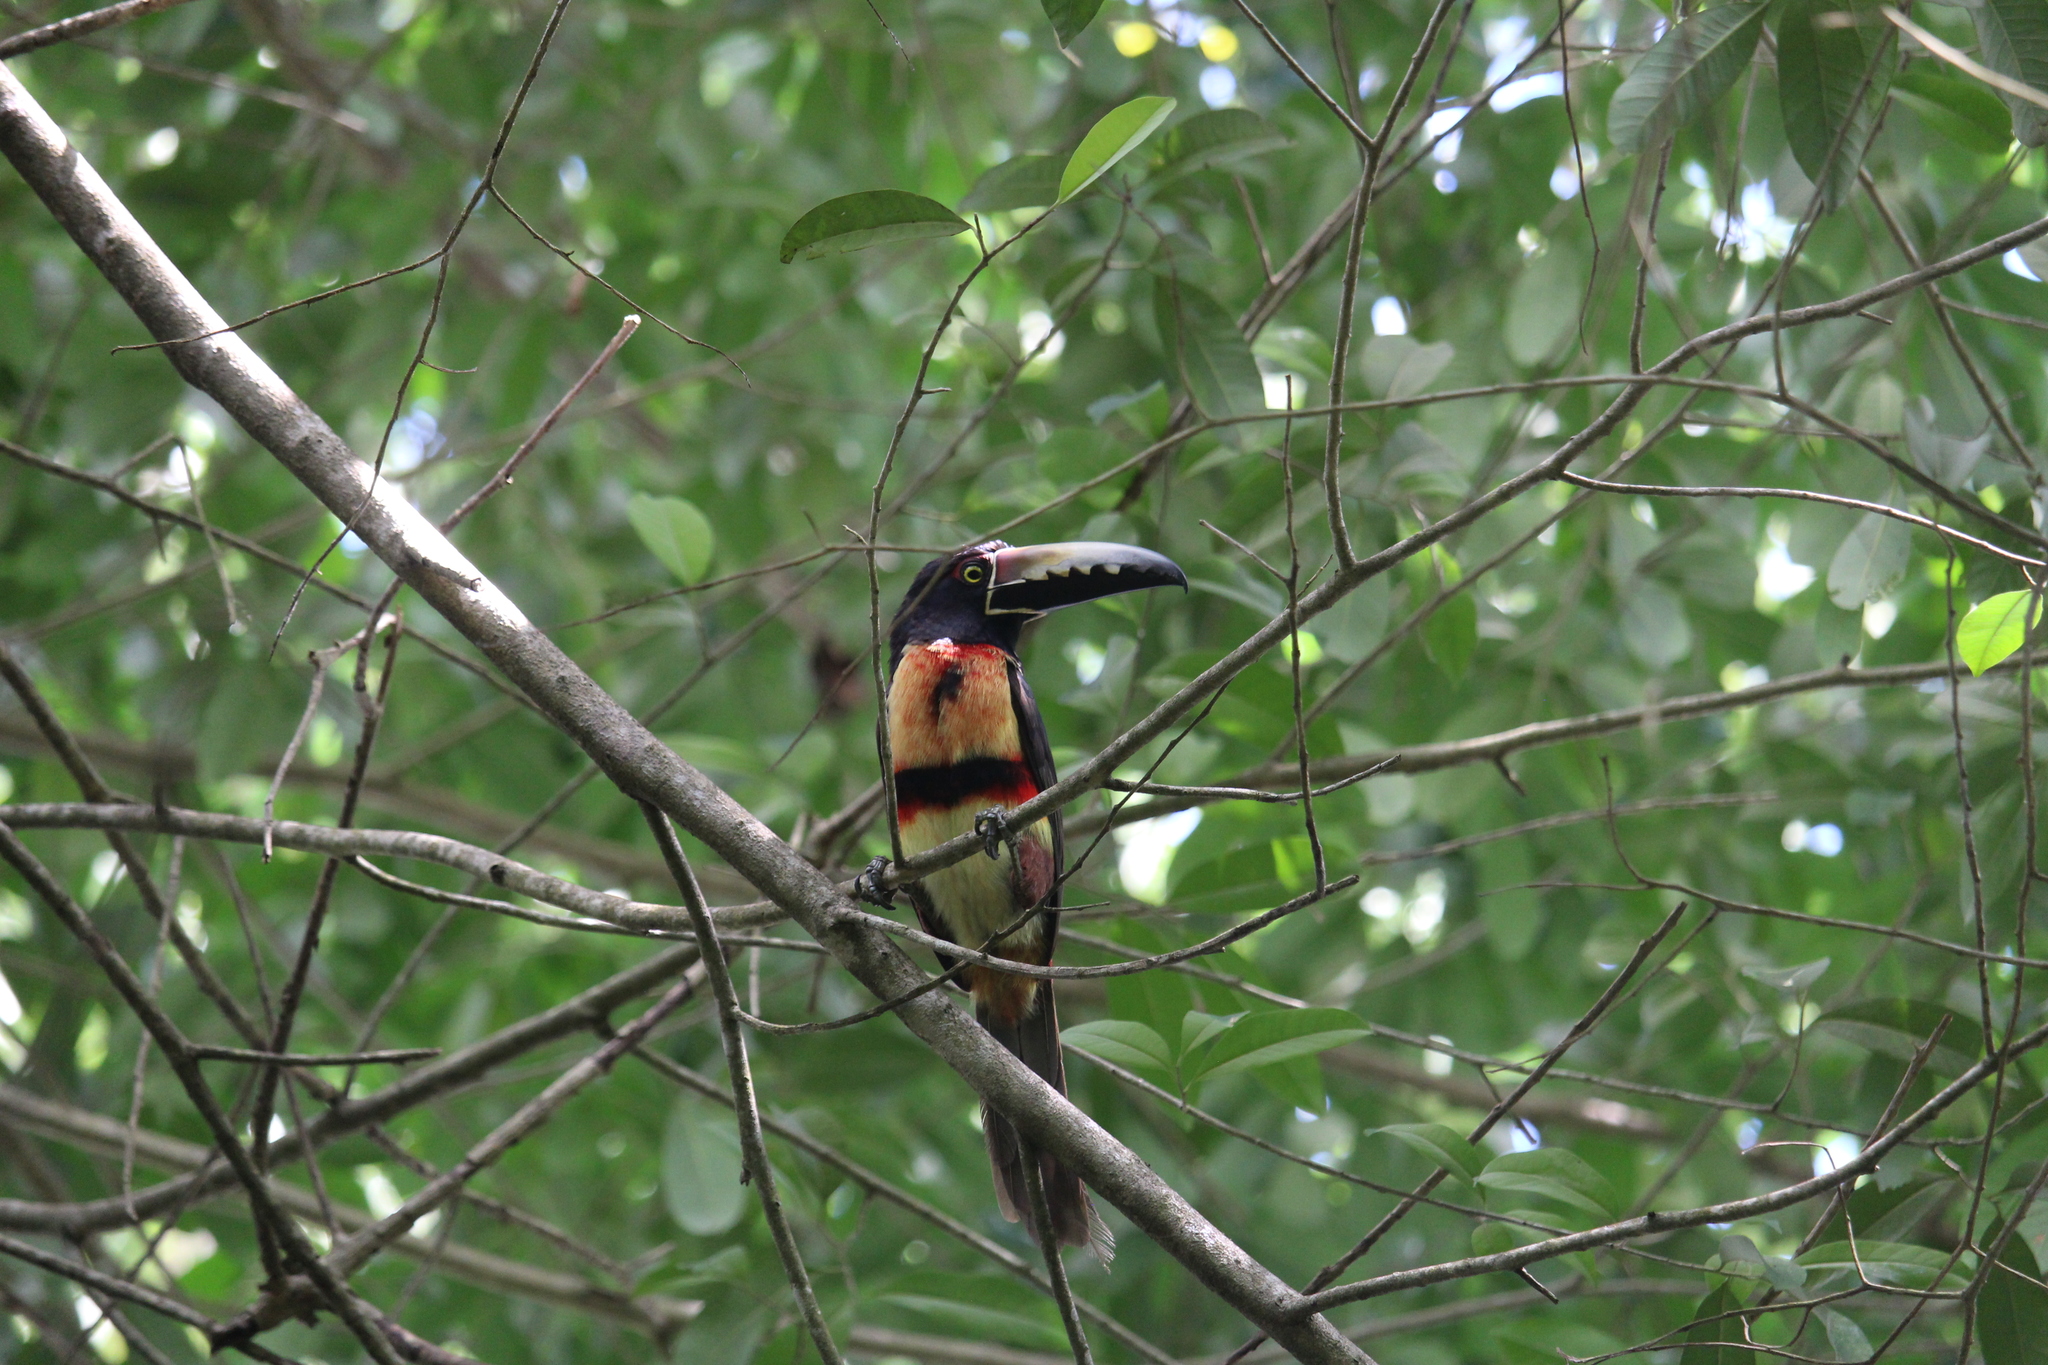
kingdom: Animalia
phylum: Chordata
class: Aves
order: Piciformes
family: Ramphastidae
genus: Pteroglossus
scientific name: Pteroglossus torquatus
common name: Collared aracari
